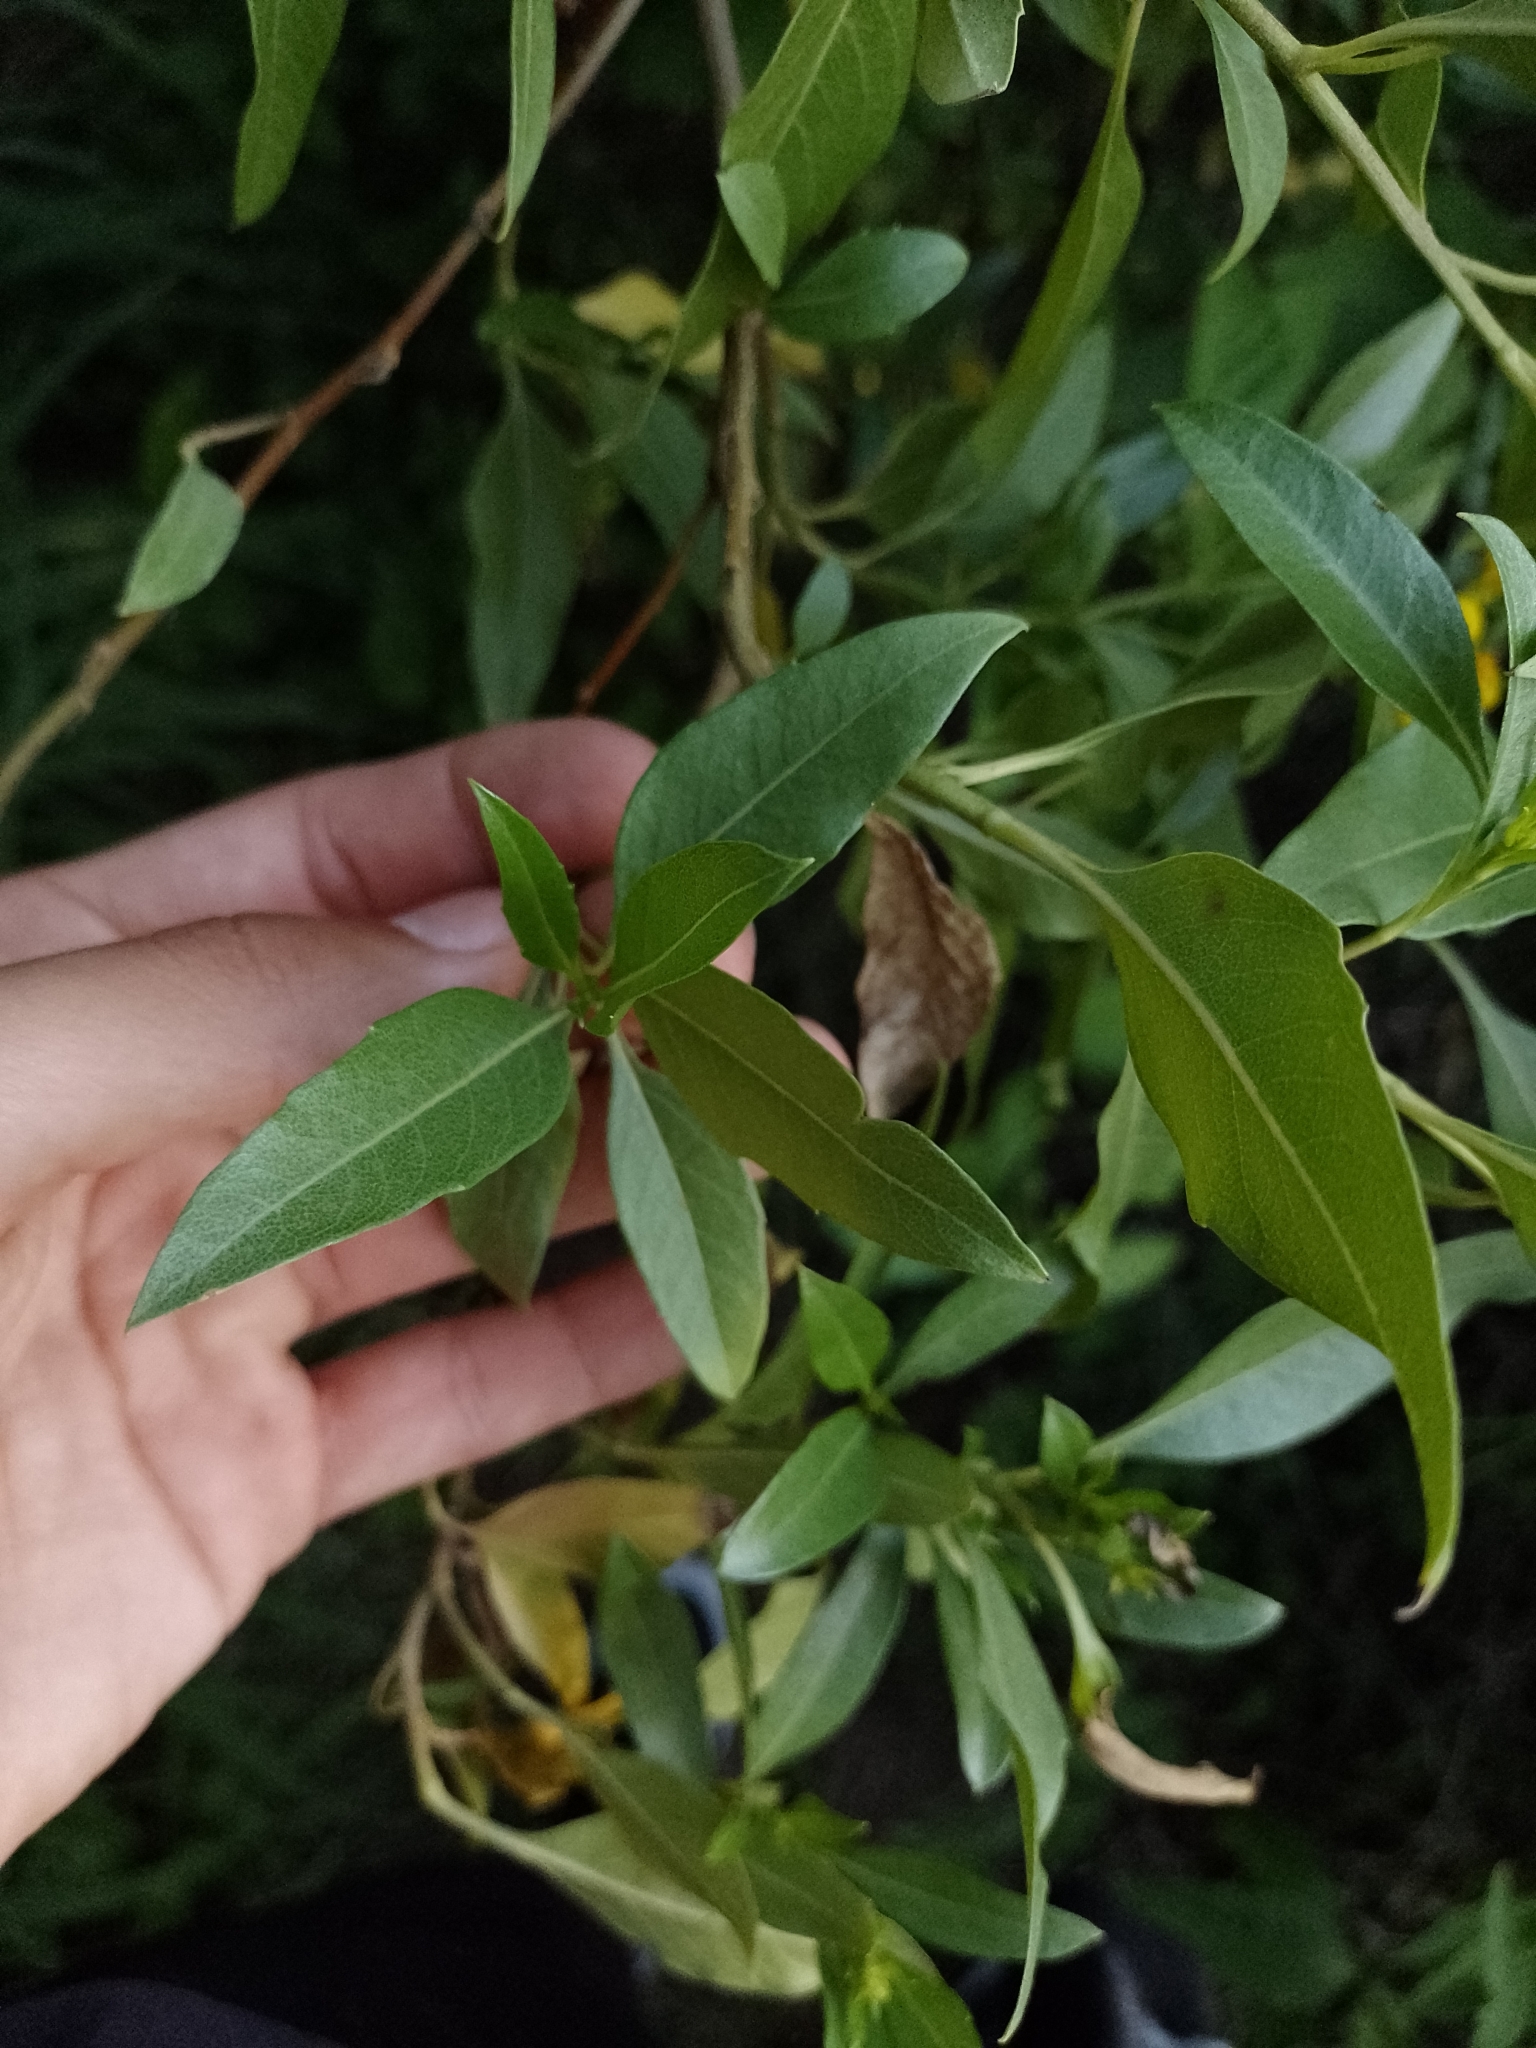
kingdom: Plantae
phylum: Tracheophyta
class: Magnoliopsida
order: Asterales
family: Asteraceae
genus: Flourensia
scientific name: Flourensia thurifera
